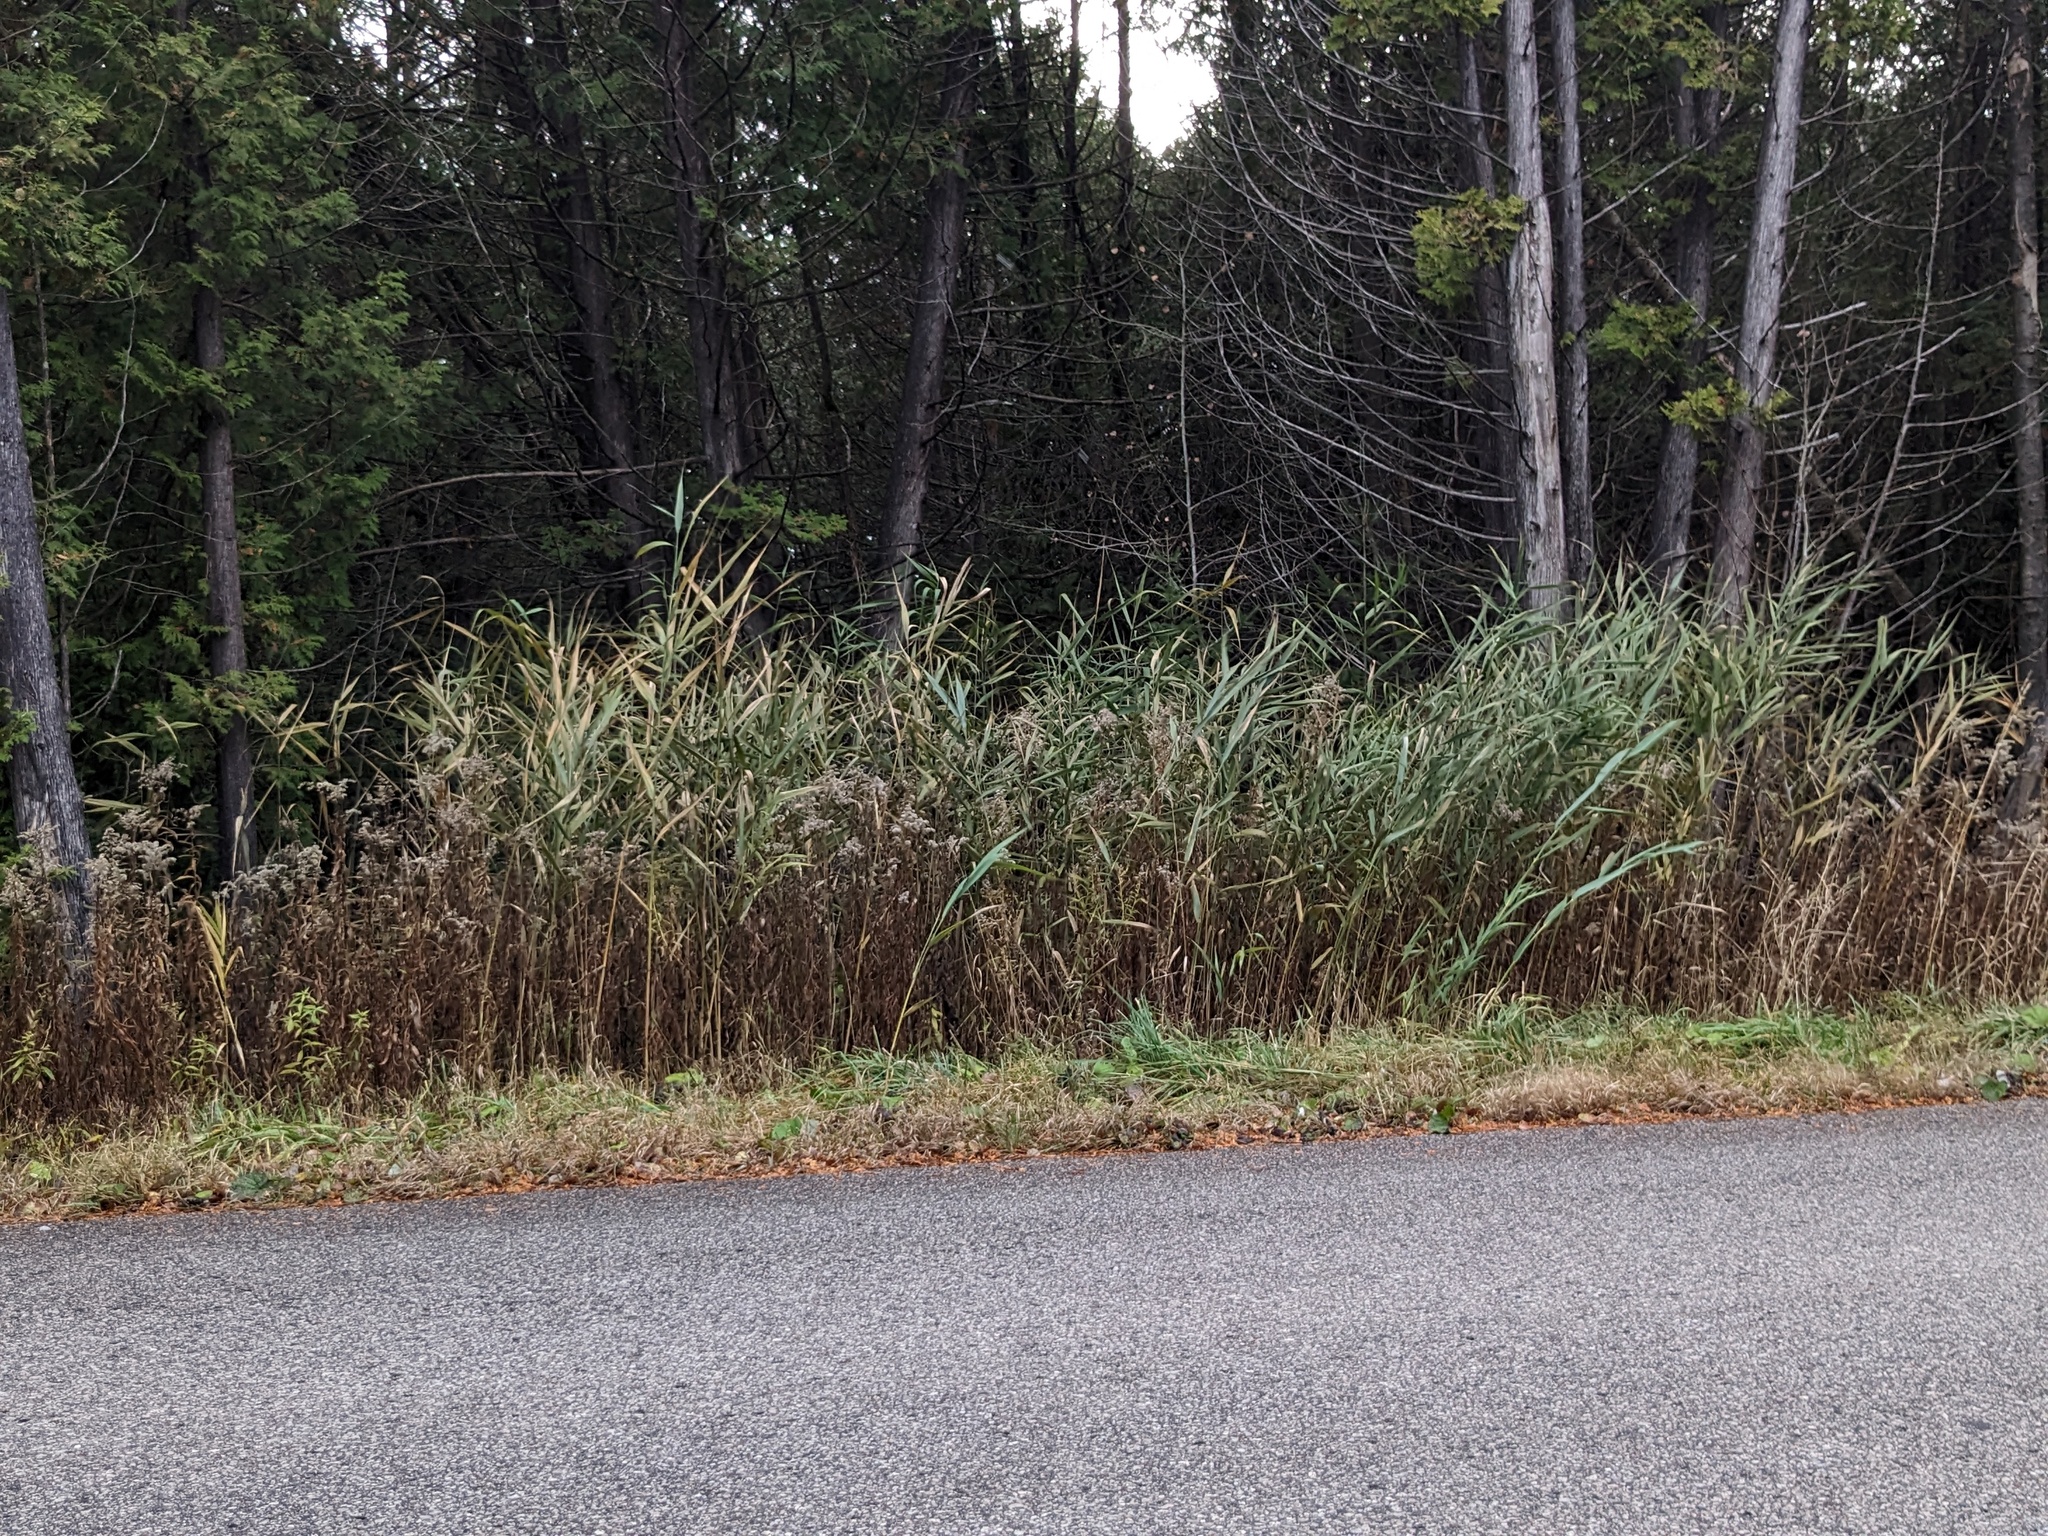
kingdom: Plantae
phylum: Tracheophyta
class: Liliopsida
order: Poales
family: Poaceae
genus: Phragmites
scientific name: Phragmites australis
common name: Common reed
